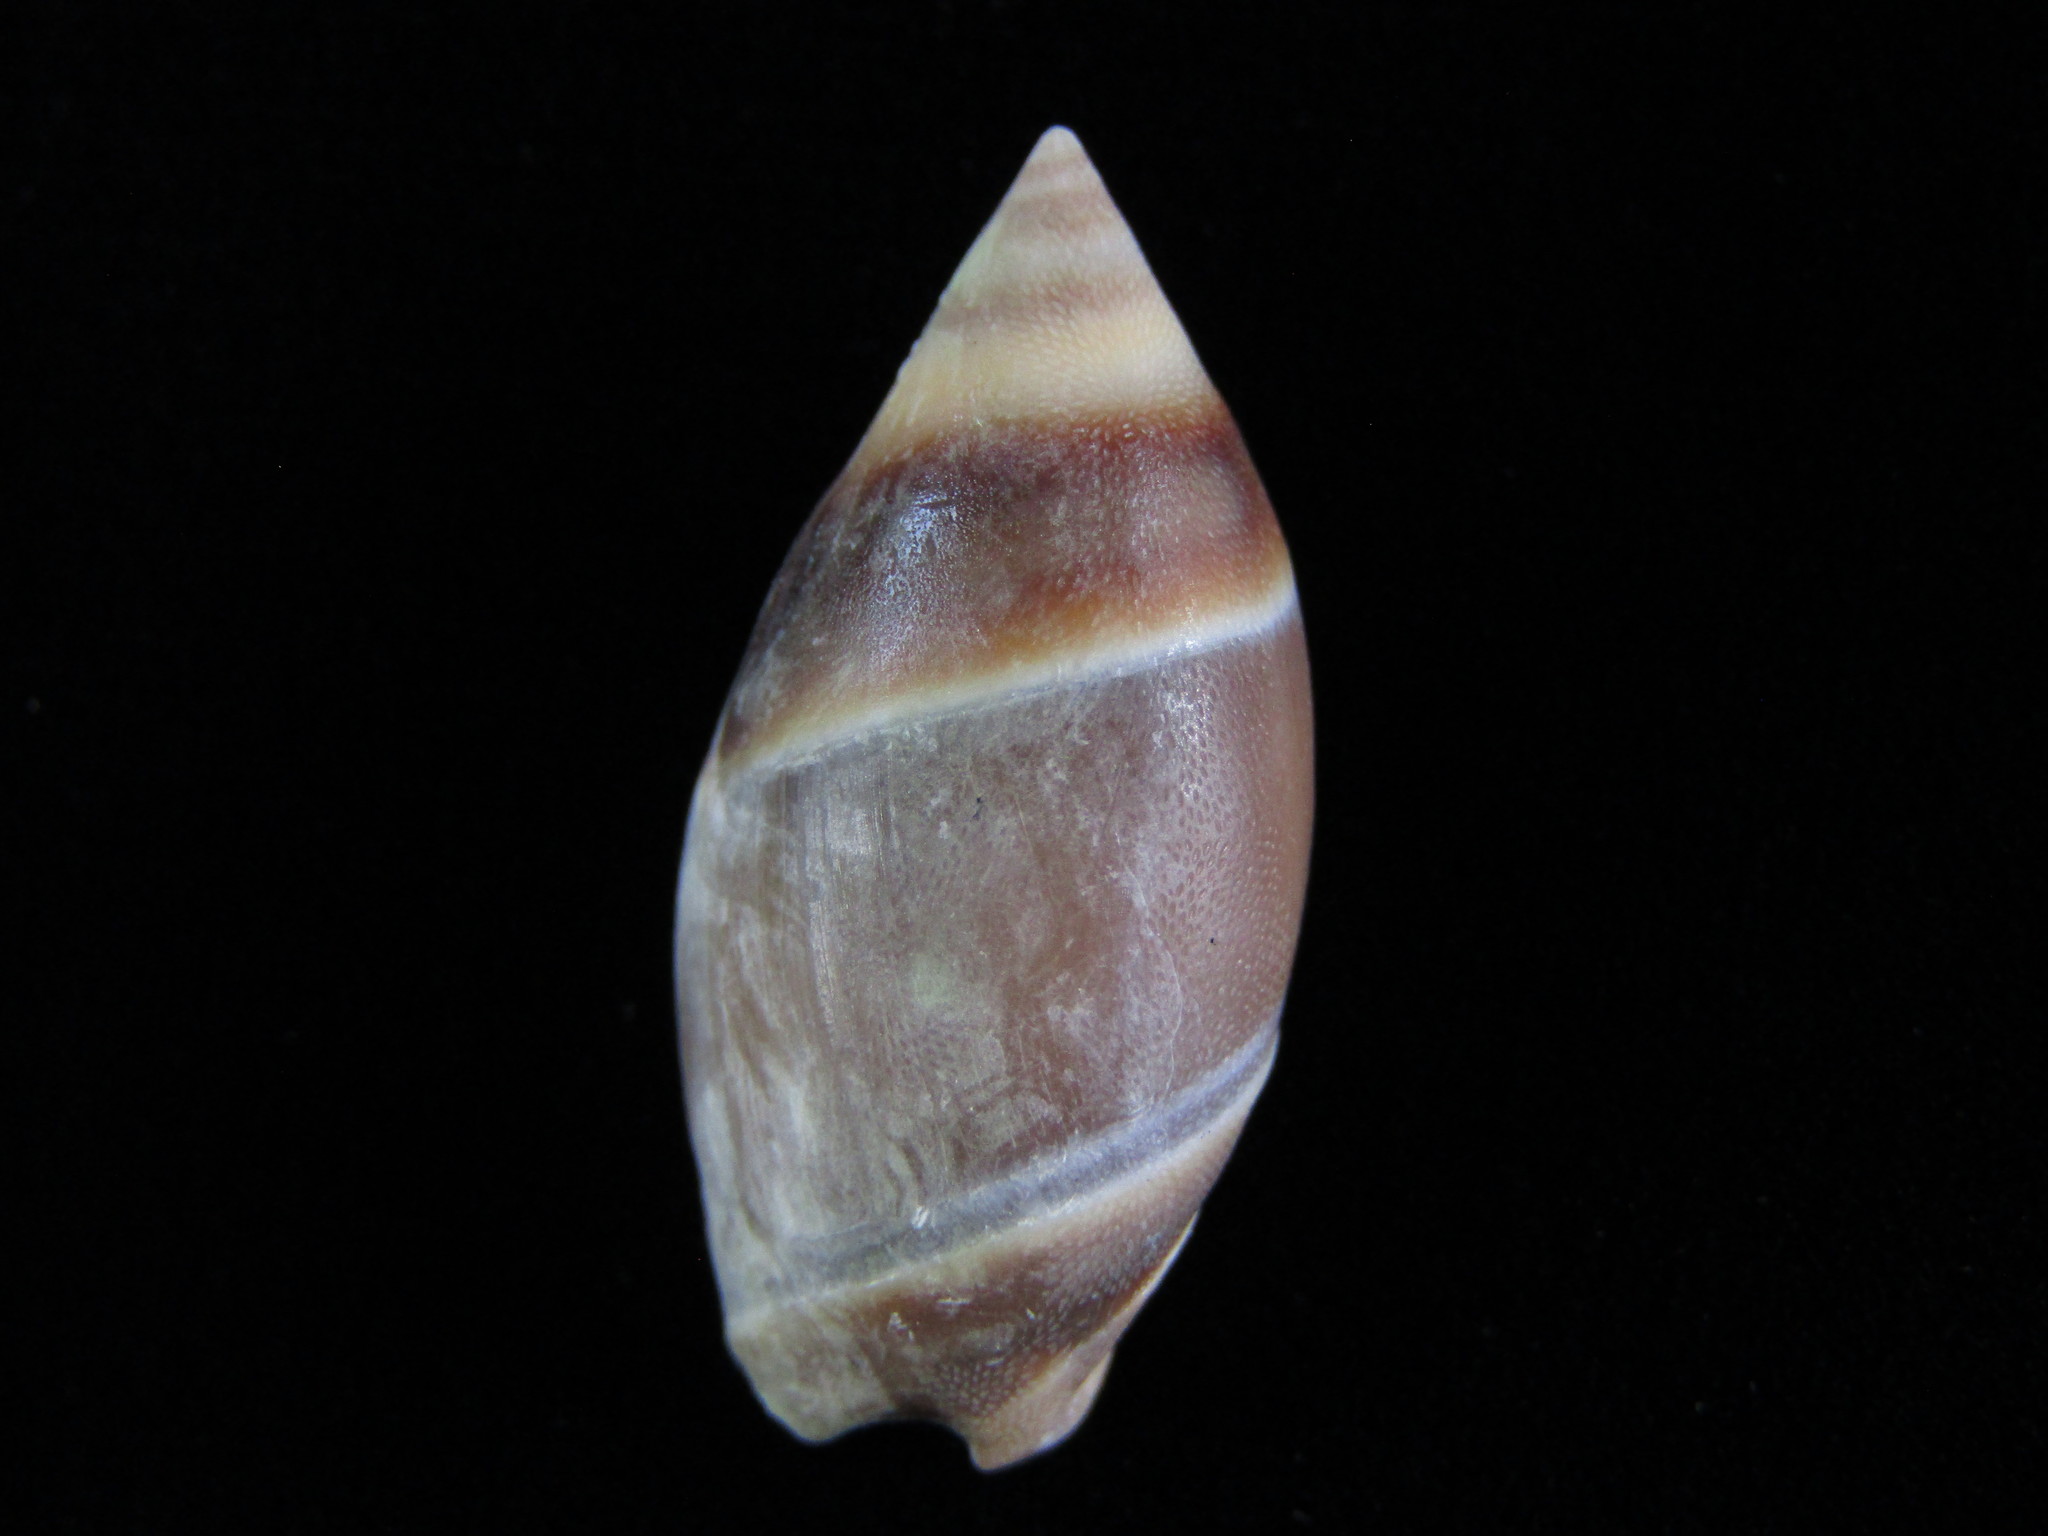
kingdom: Animalia
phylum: Mollusca
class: Gastropoda
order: Neogastropoda
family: Ancillariidae
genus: Amalda
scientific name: Amalda australis
